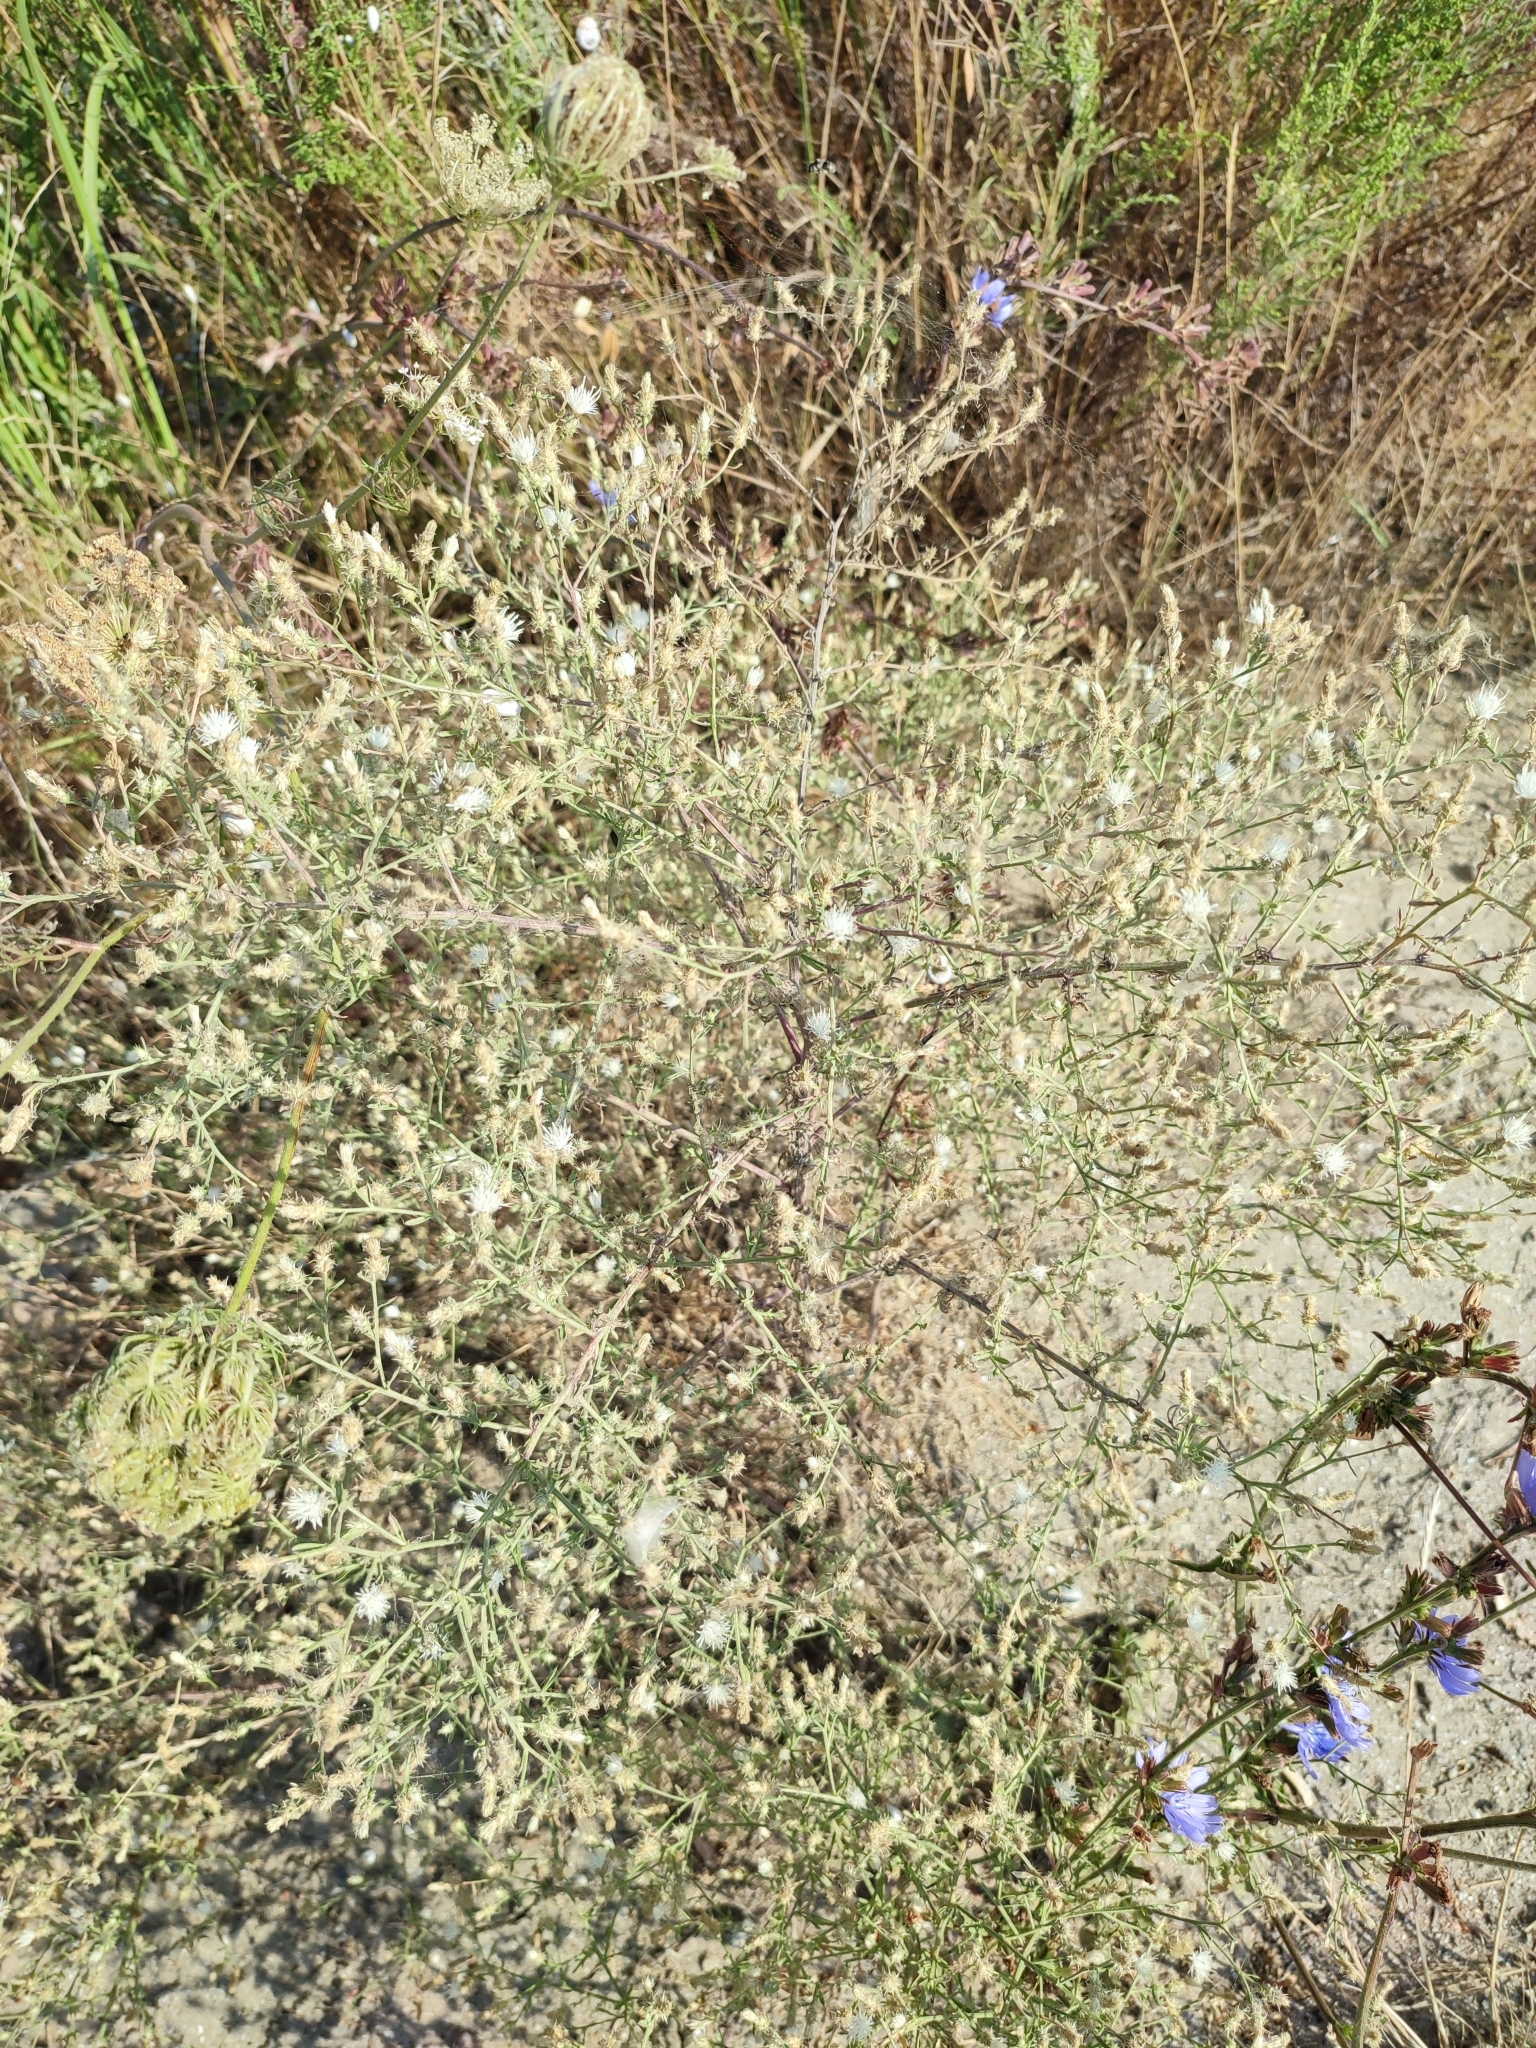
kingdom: Plantae
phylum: Tracheophyta
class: Magnoliopsida
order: Asterales
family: Asteraceae
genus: Centaurea
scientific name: Centaurea diffusa
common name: Diffuse knapweed
